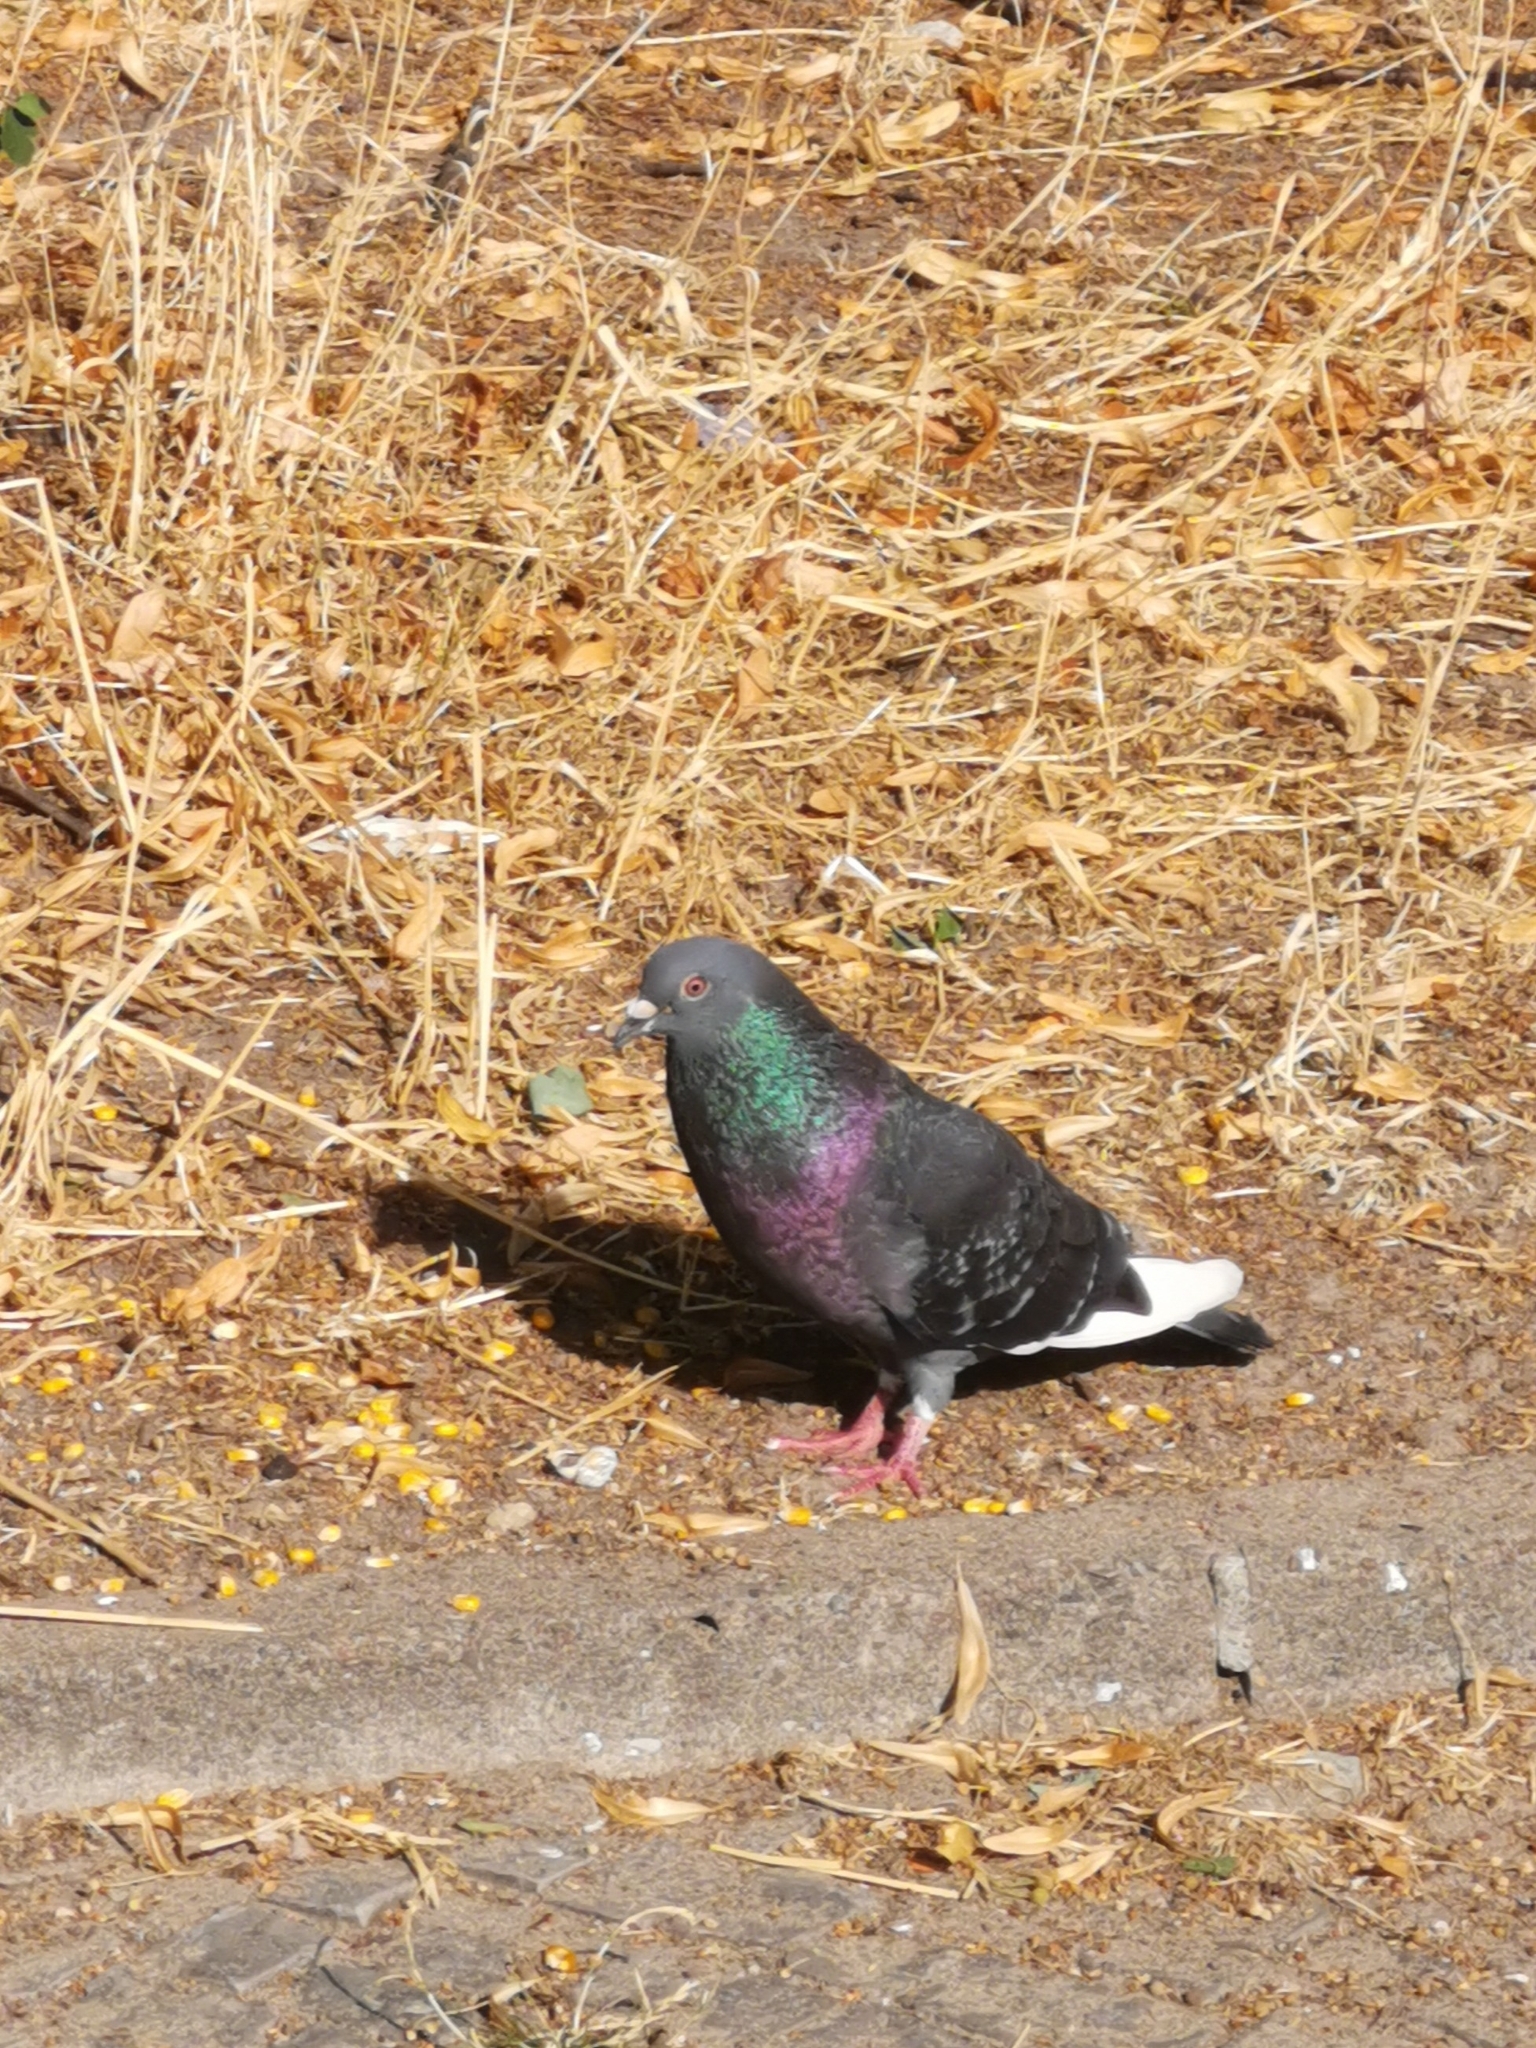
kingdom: Animalia
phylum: Chordata
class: Aves
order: Columbiformes
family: Columbidae
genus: Columba
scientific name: Columba livia
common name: Rock pigeon
